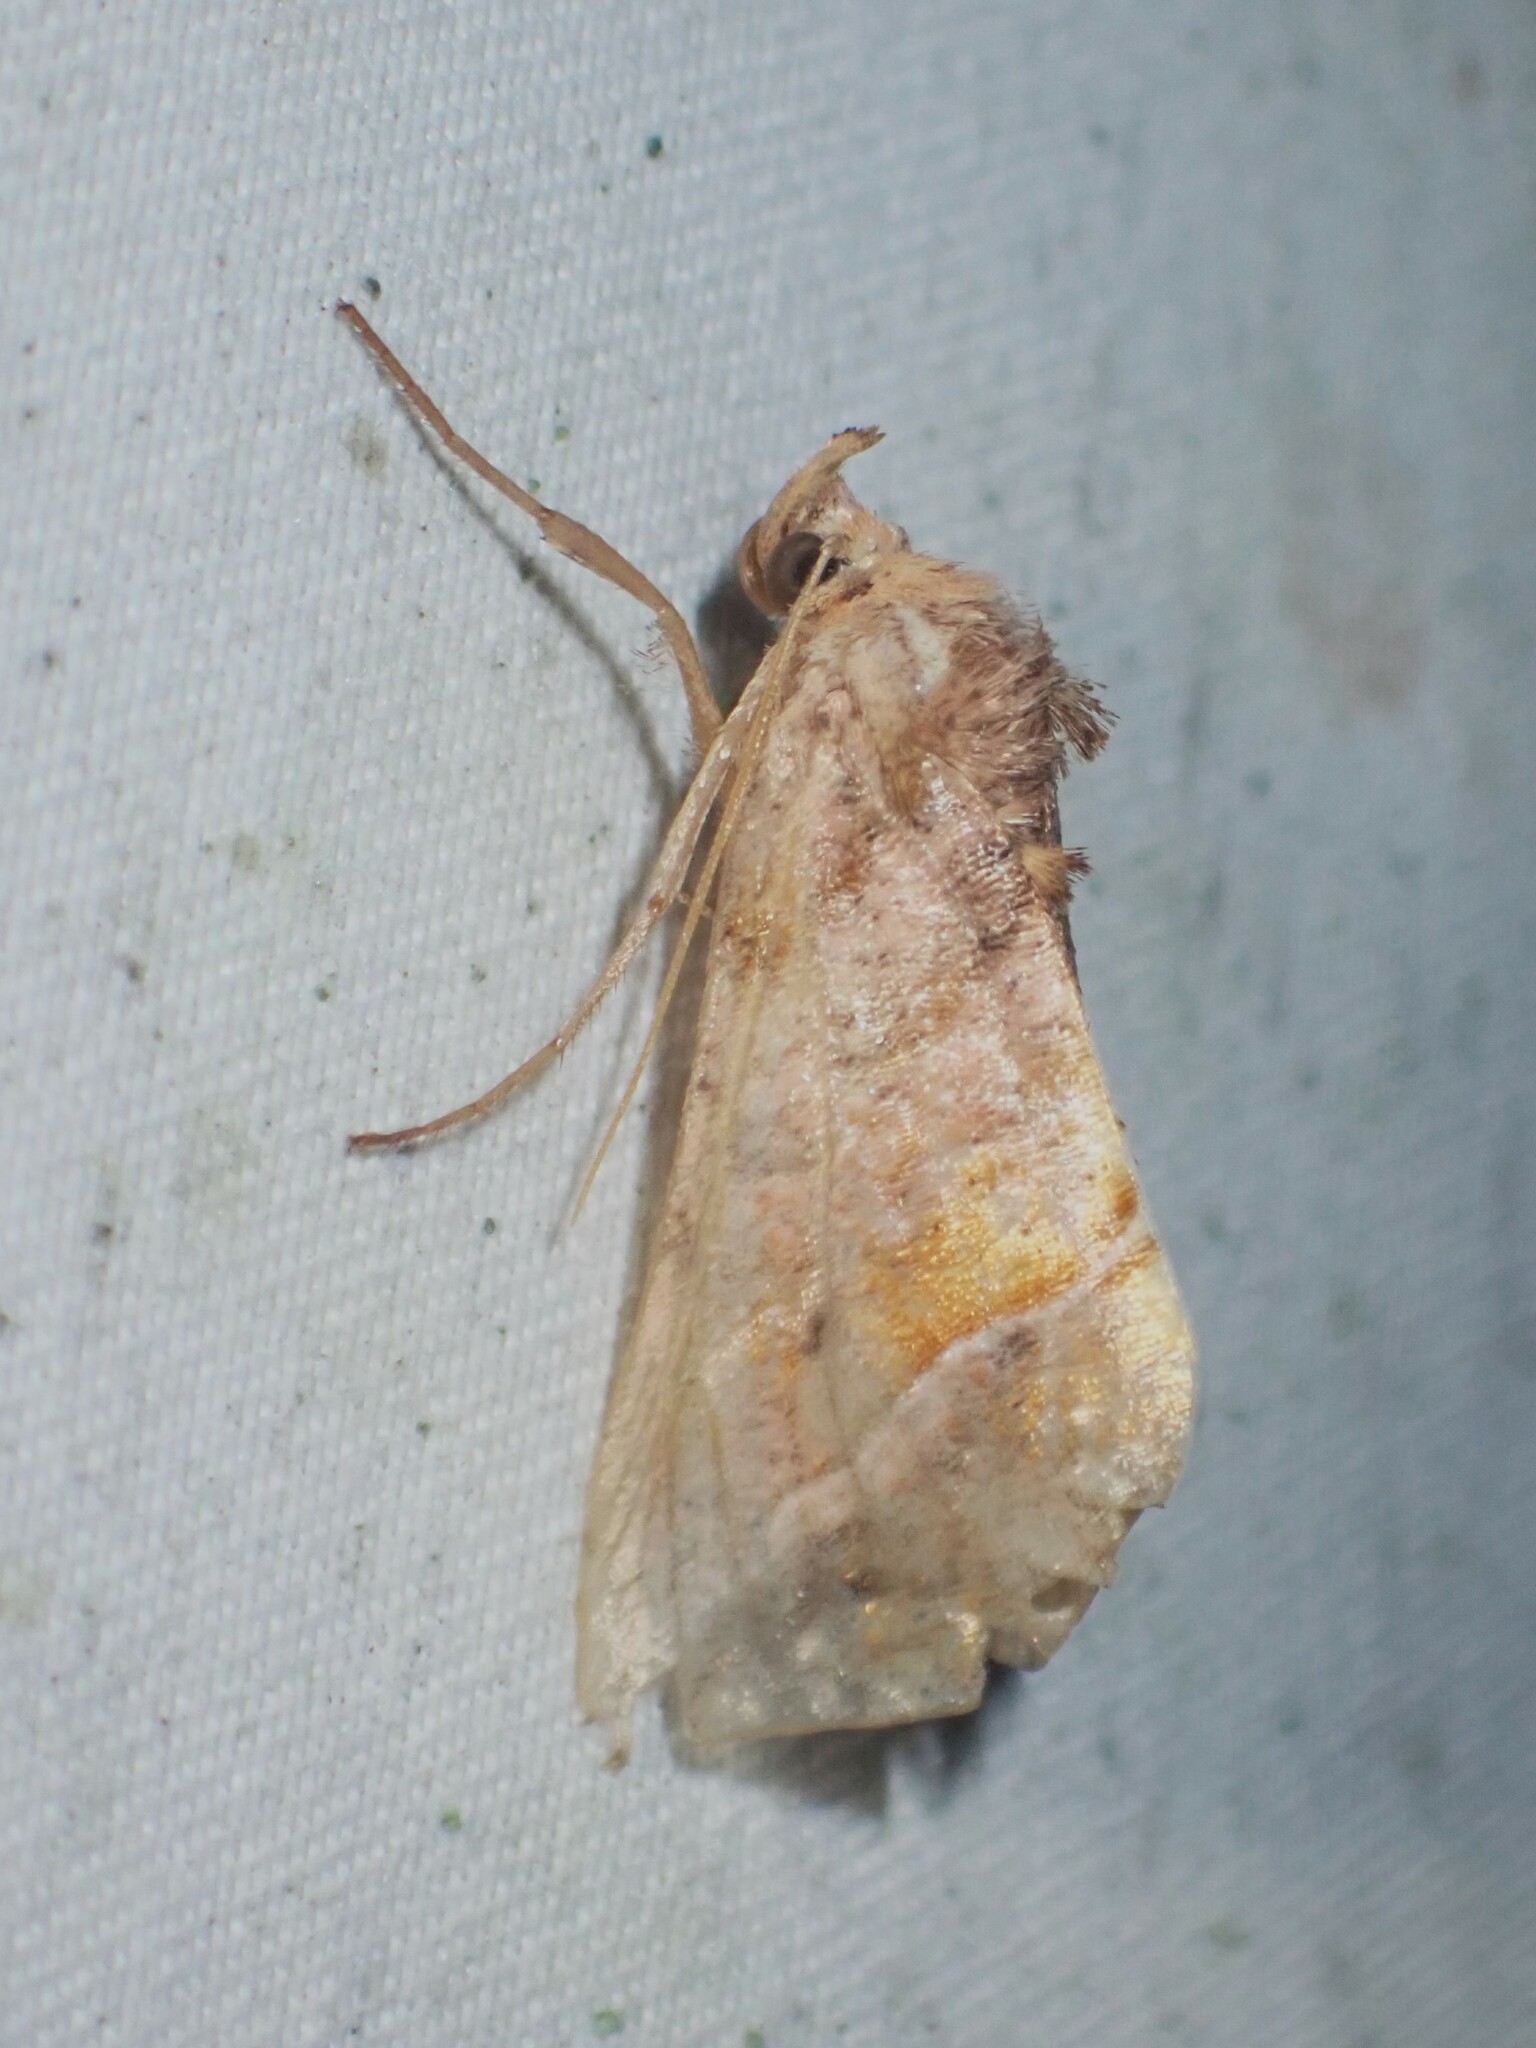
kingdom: Animalia
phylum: Arthropoda
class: Insecta
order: Lepidoptera
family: Noctuidae
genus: Pseudeva
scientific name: Pseudeva purpurigera
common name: Straight-lined looper moth
